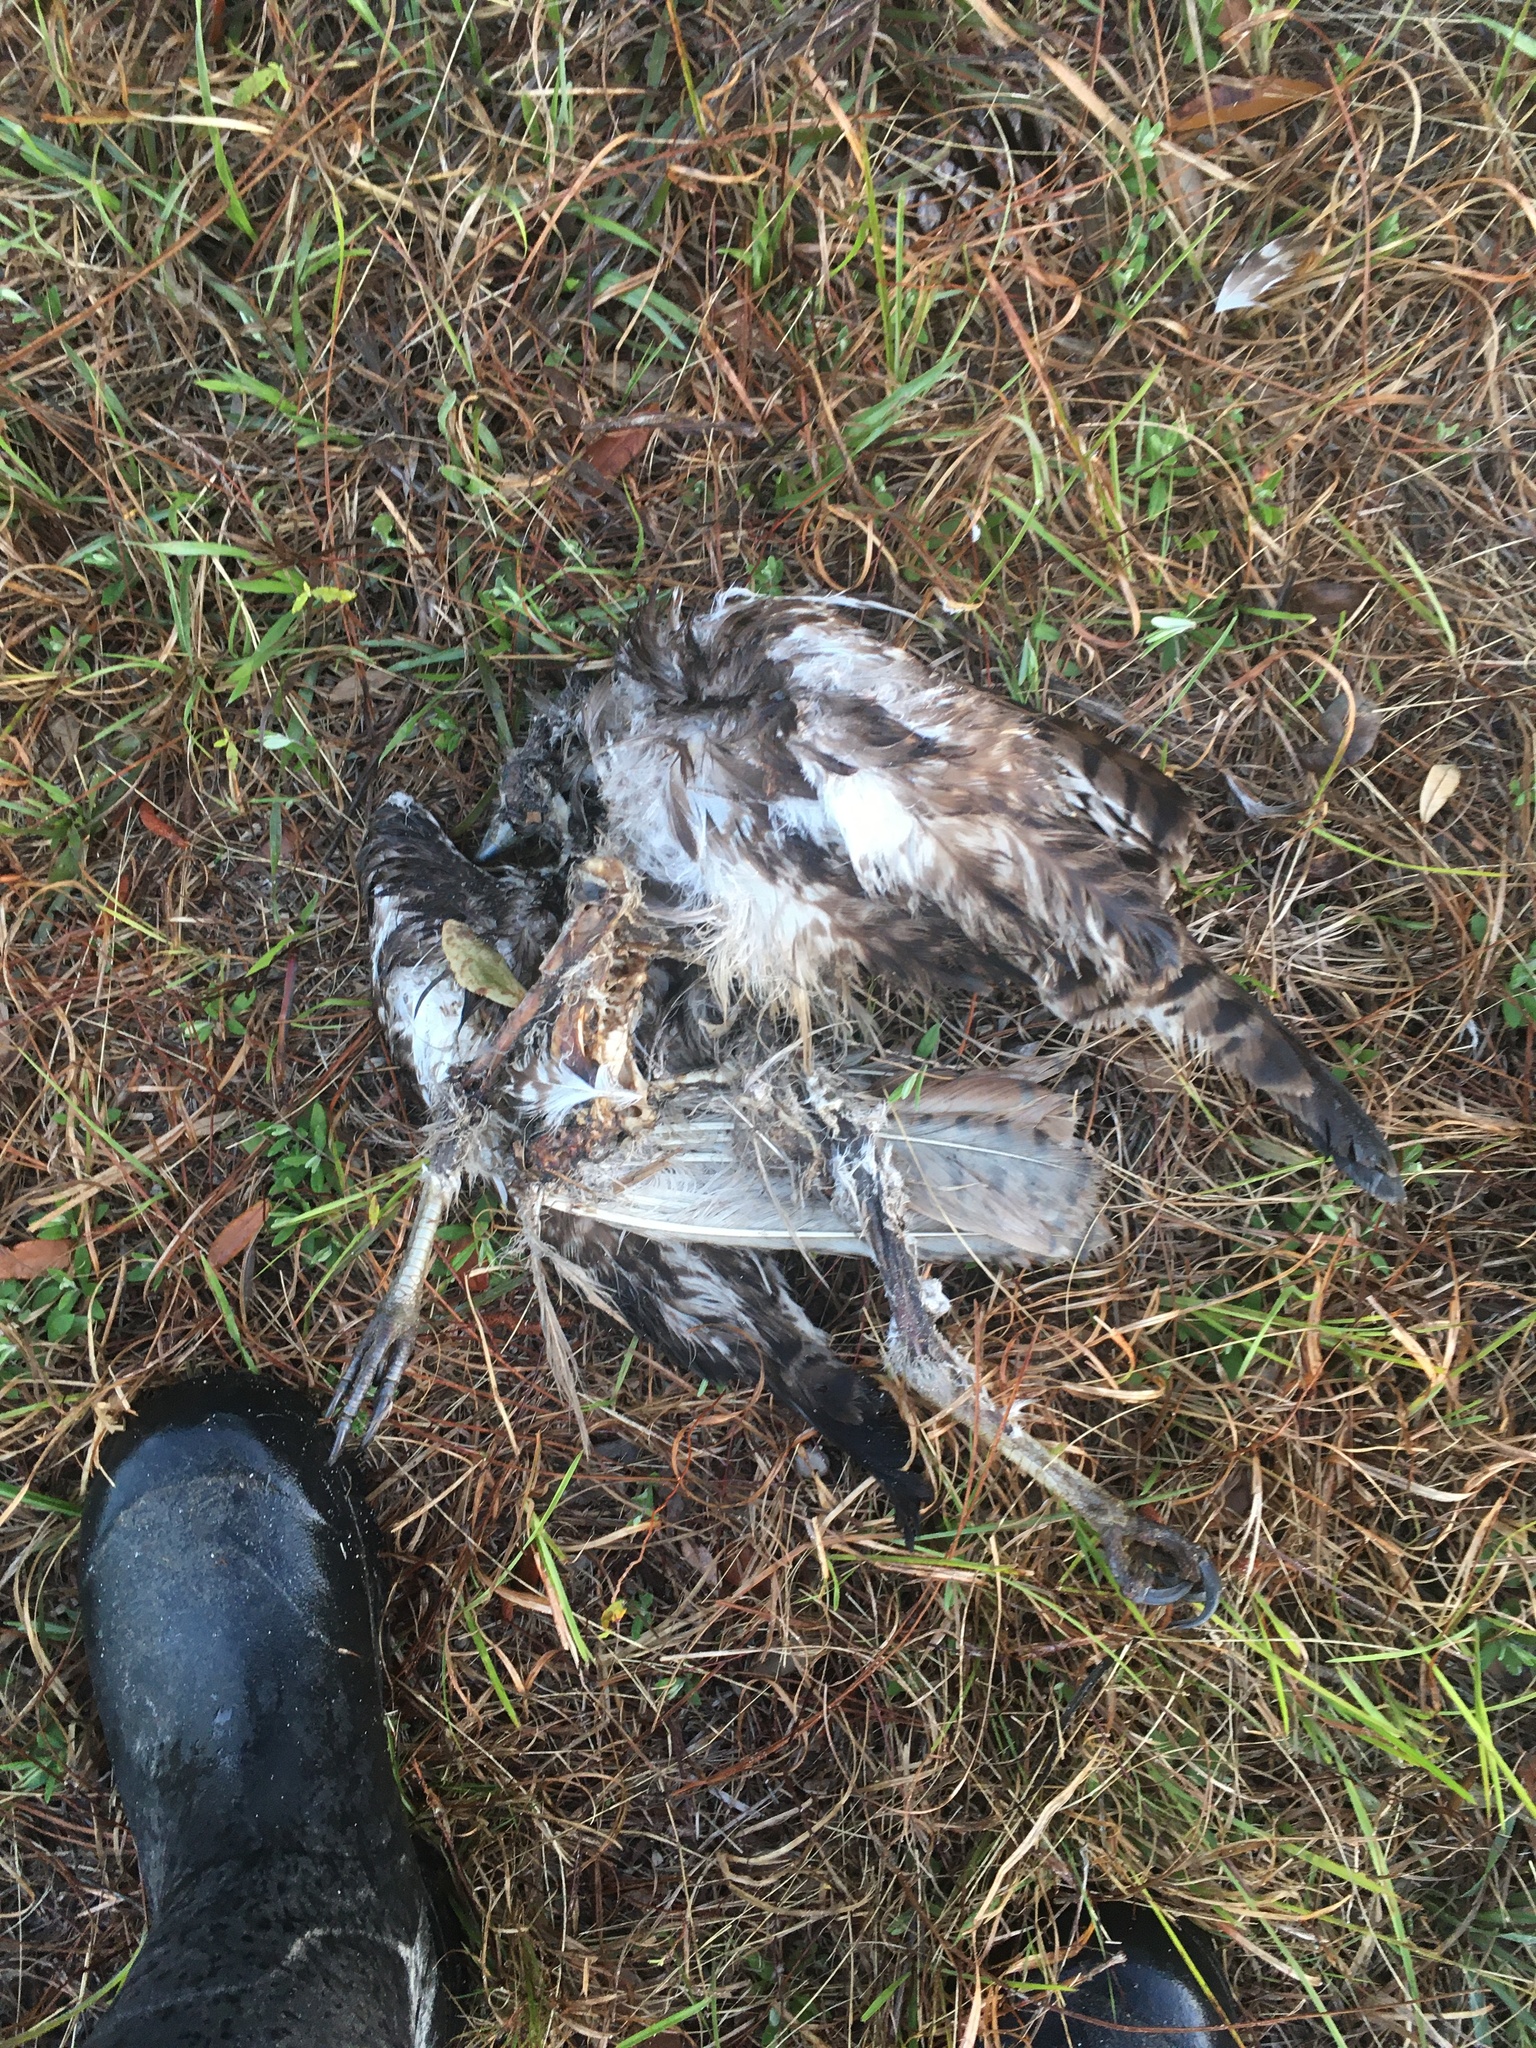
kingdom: Animalia
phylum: Chordata
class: Aves
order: Accipitriformes
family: Accipitridae
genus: Buteo
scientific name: Buteo jamaicensis
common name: Red-tailed hawk
